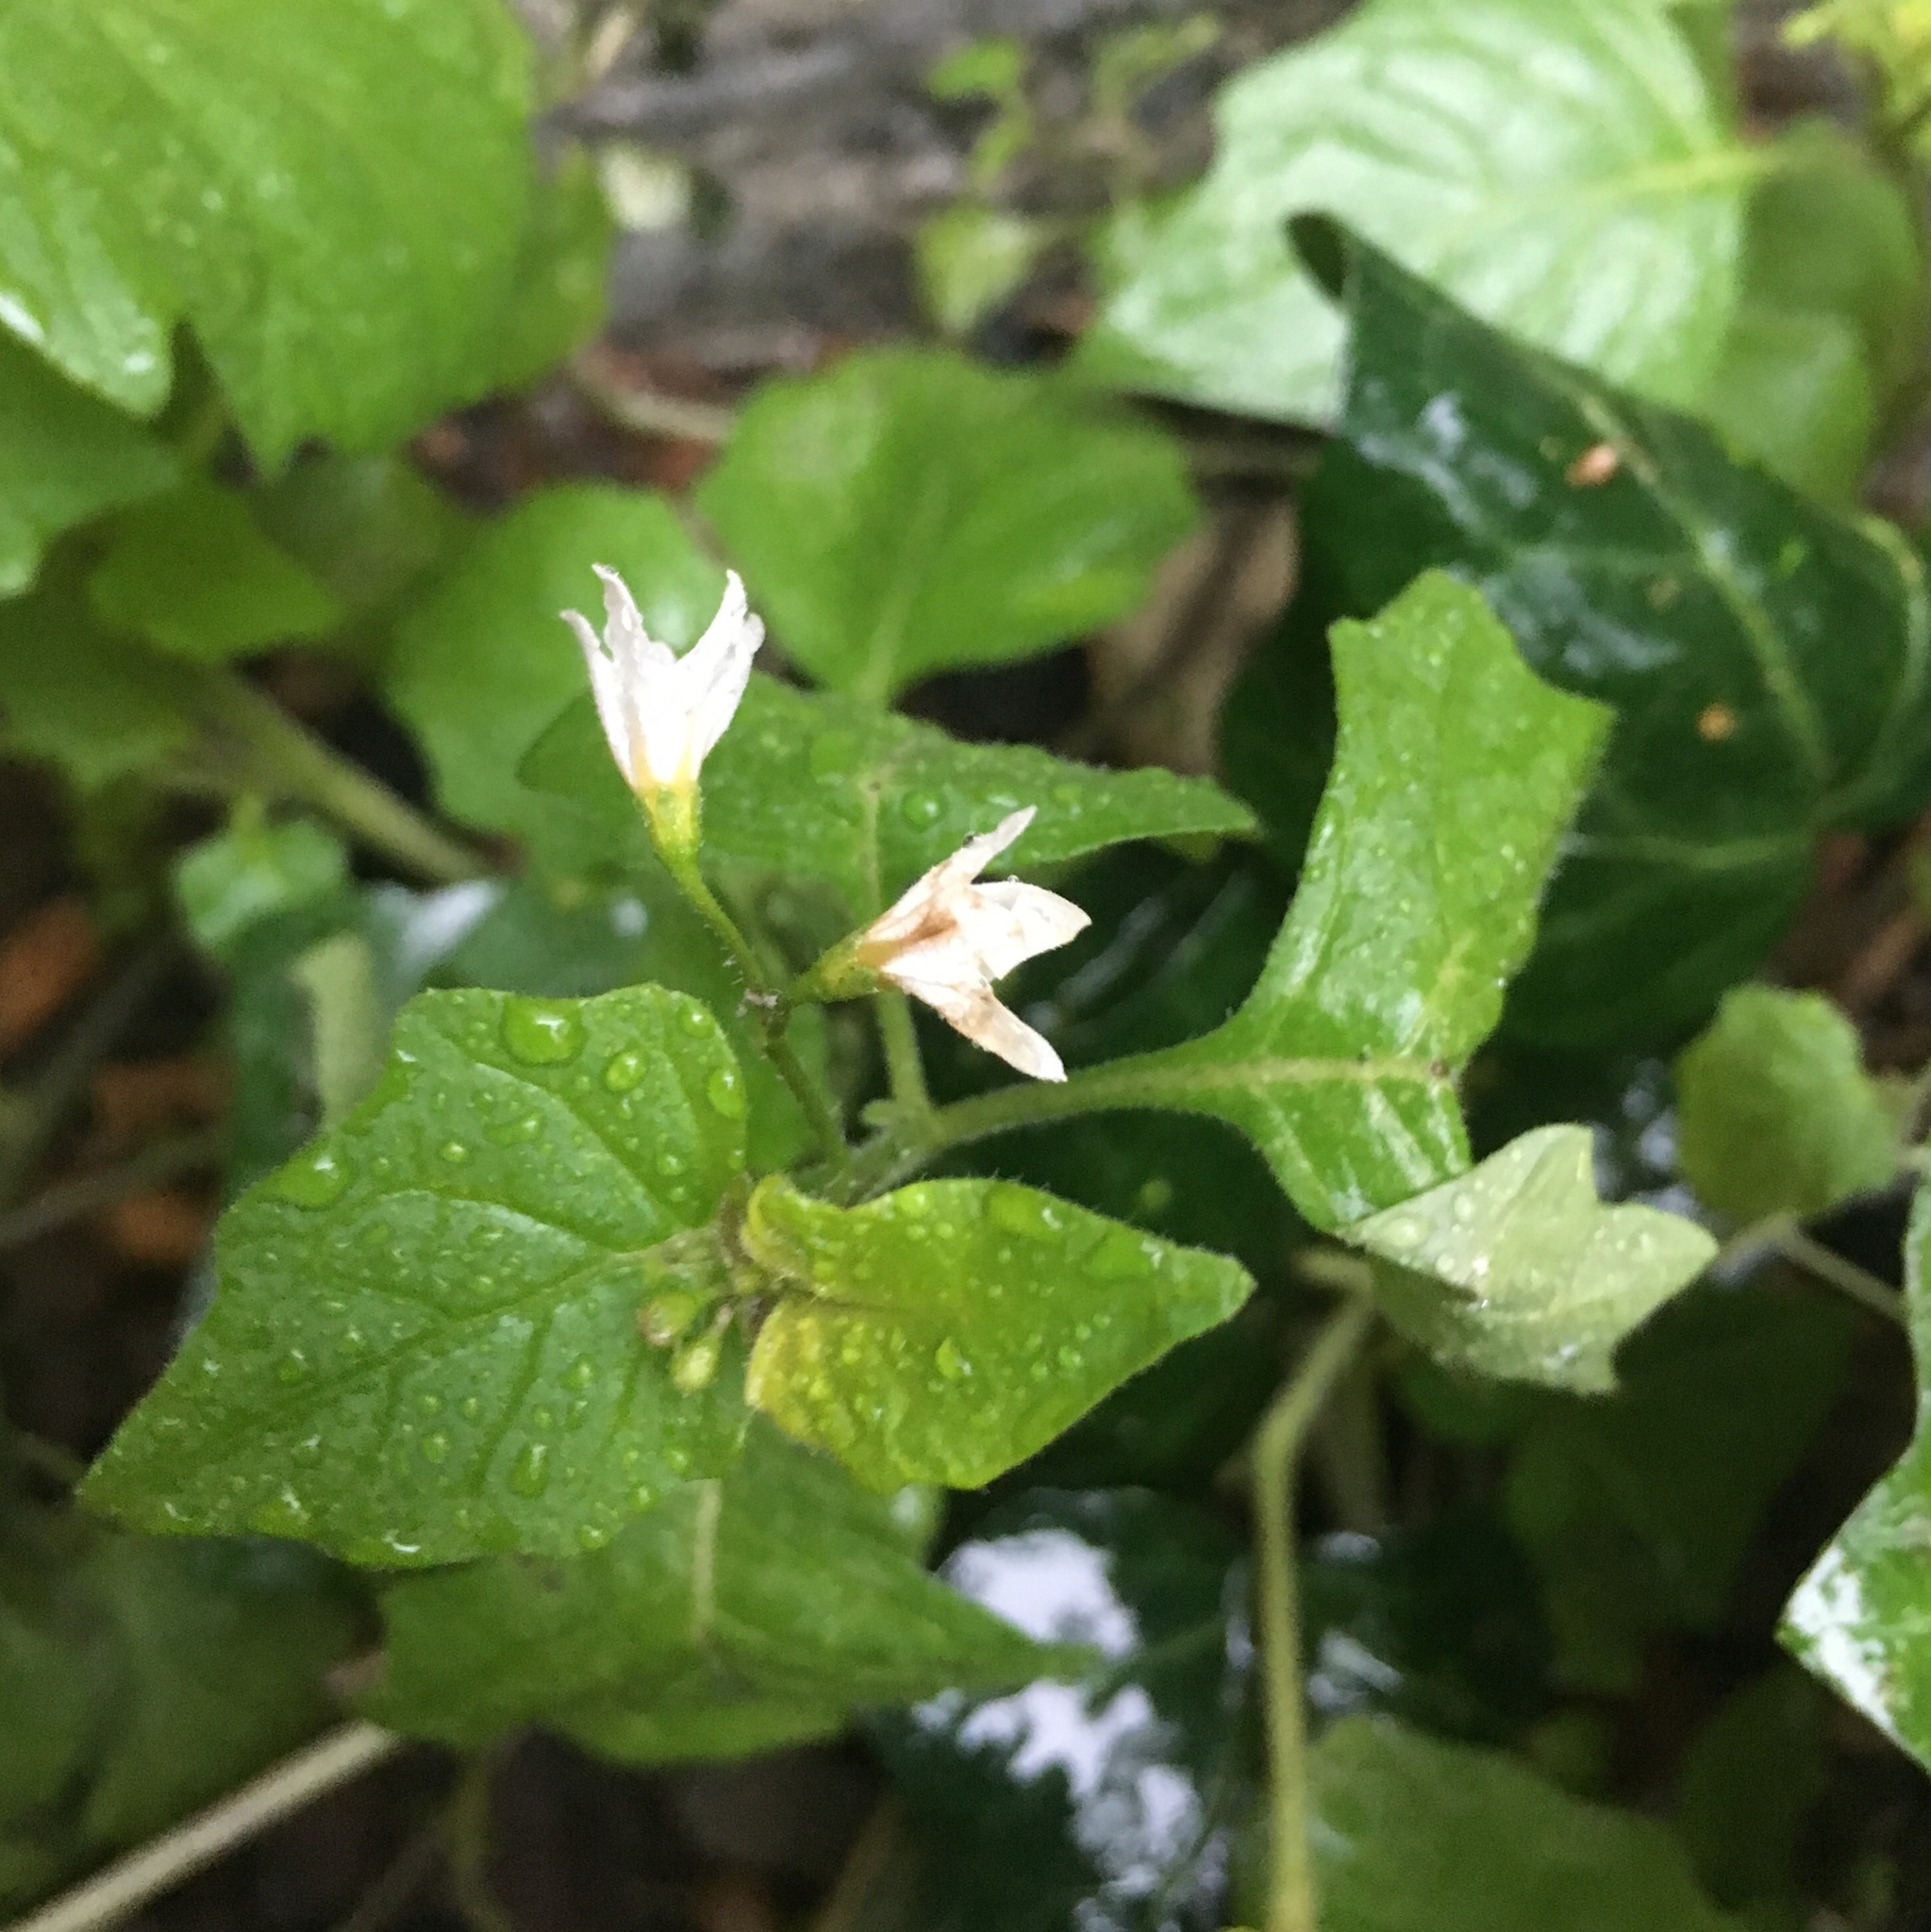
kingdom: Plantae
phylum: Tracheophyta
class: Magnoliopsida
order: Solanales
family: Solanaceae
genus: Solanum
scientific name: Solanum nigrum
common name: Black nightshade
